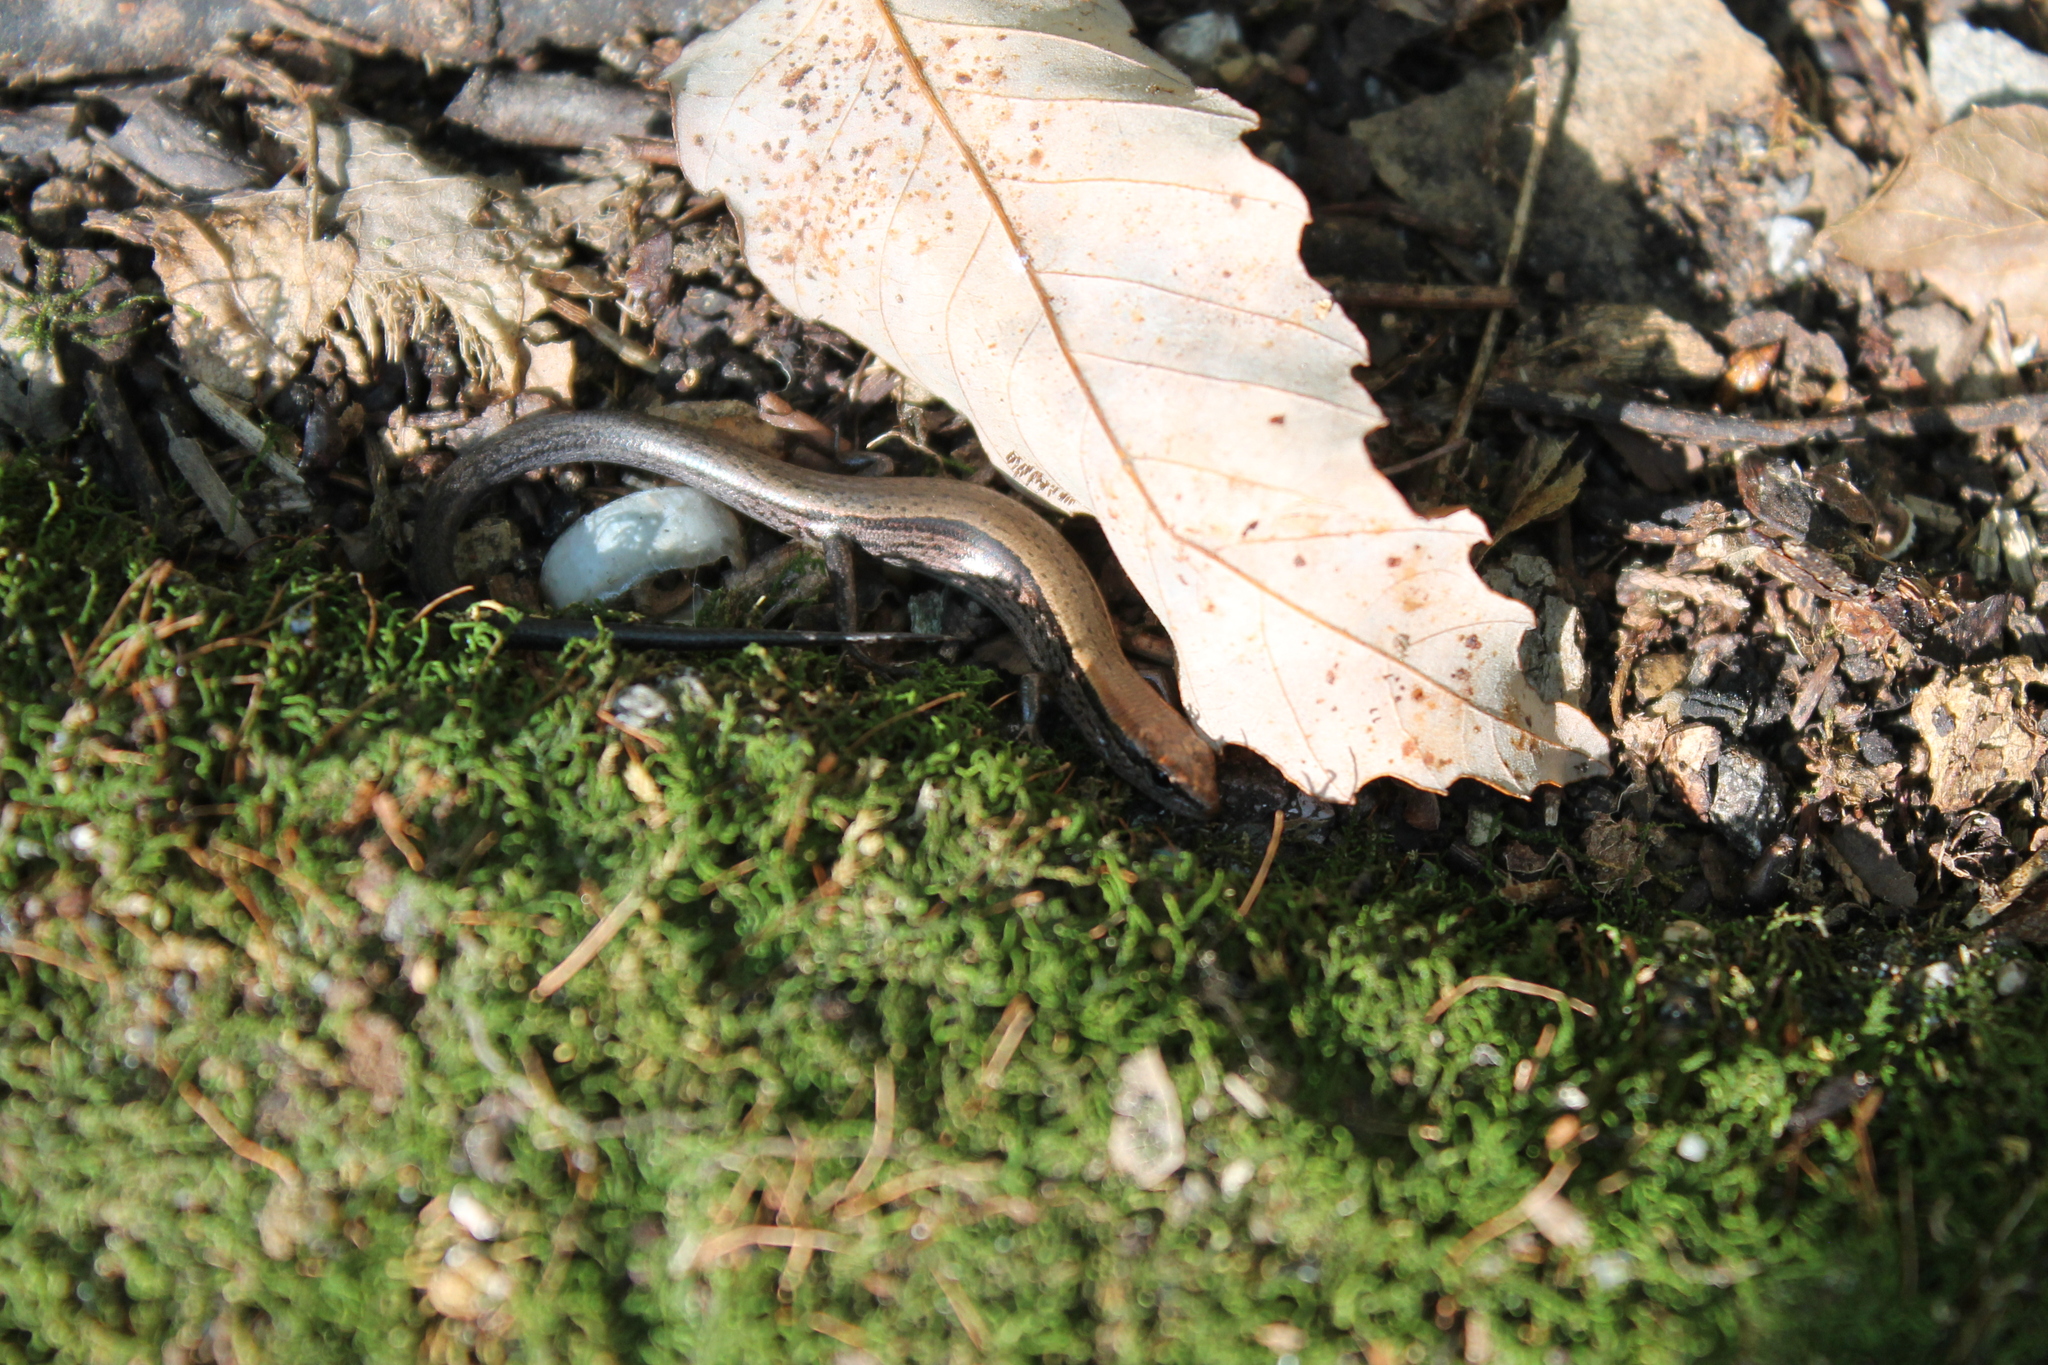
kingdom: Animalia
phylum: Chordata
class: Squamata
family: Scincidae
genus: Scincella
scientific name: Scincella lateralis
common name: Ground skink
